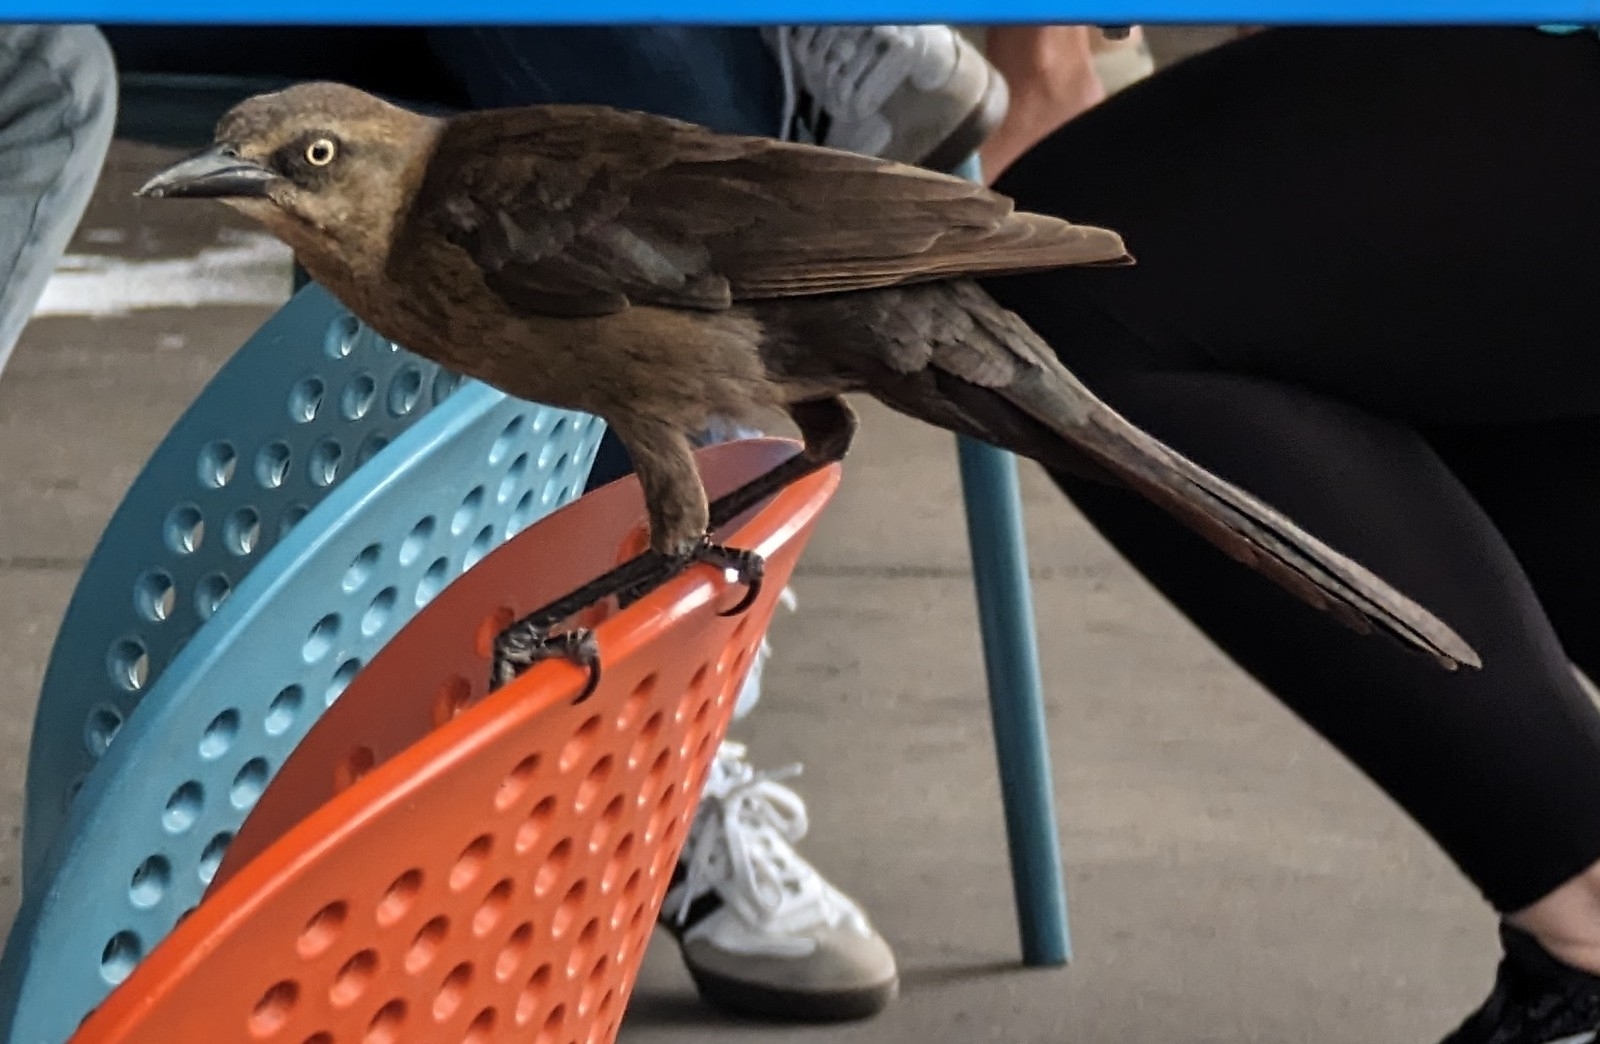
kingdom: Animalia
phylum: Chordata
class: Aves
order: Passeriformes
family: Icteridae
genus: Quiscalus
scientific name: Quiscalus mexicanus
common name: Great-tailed grackle
